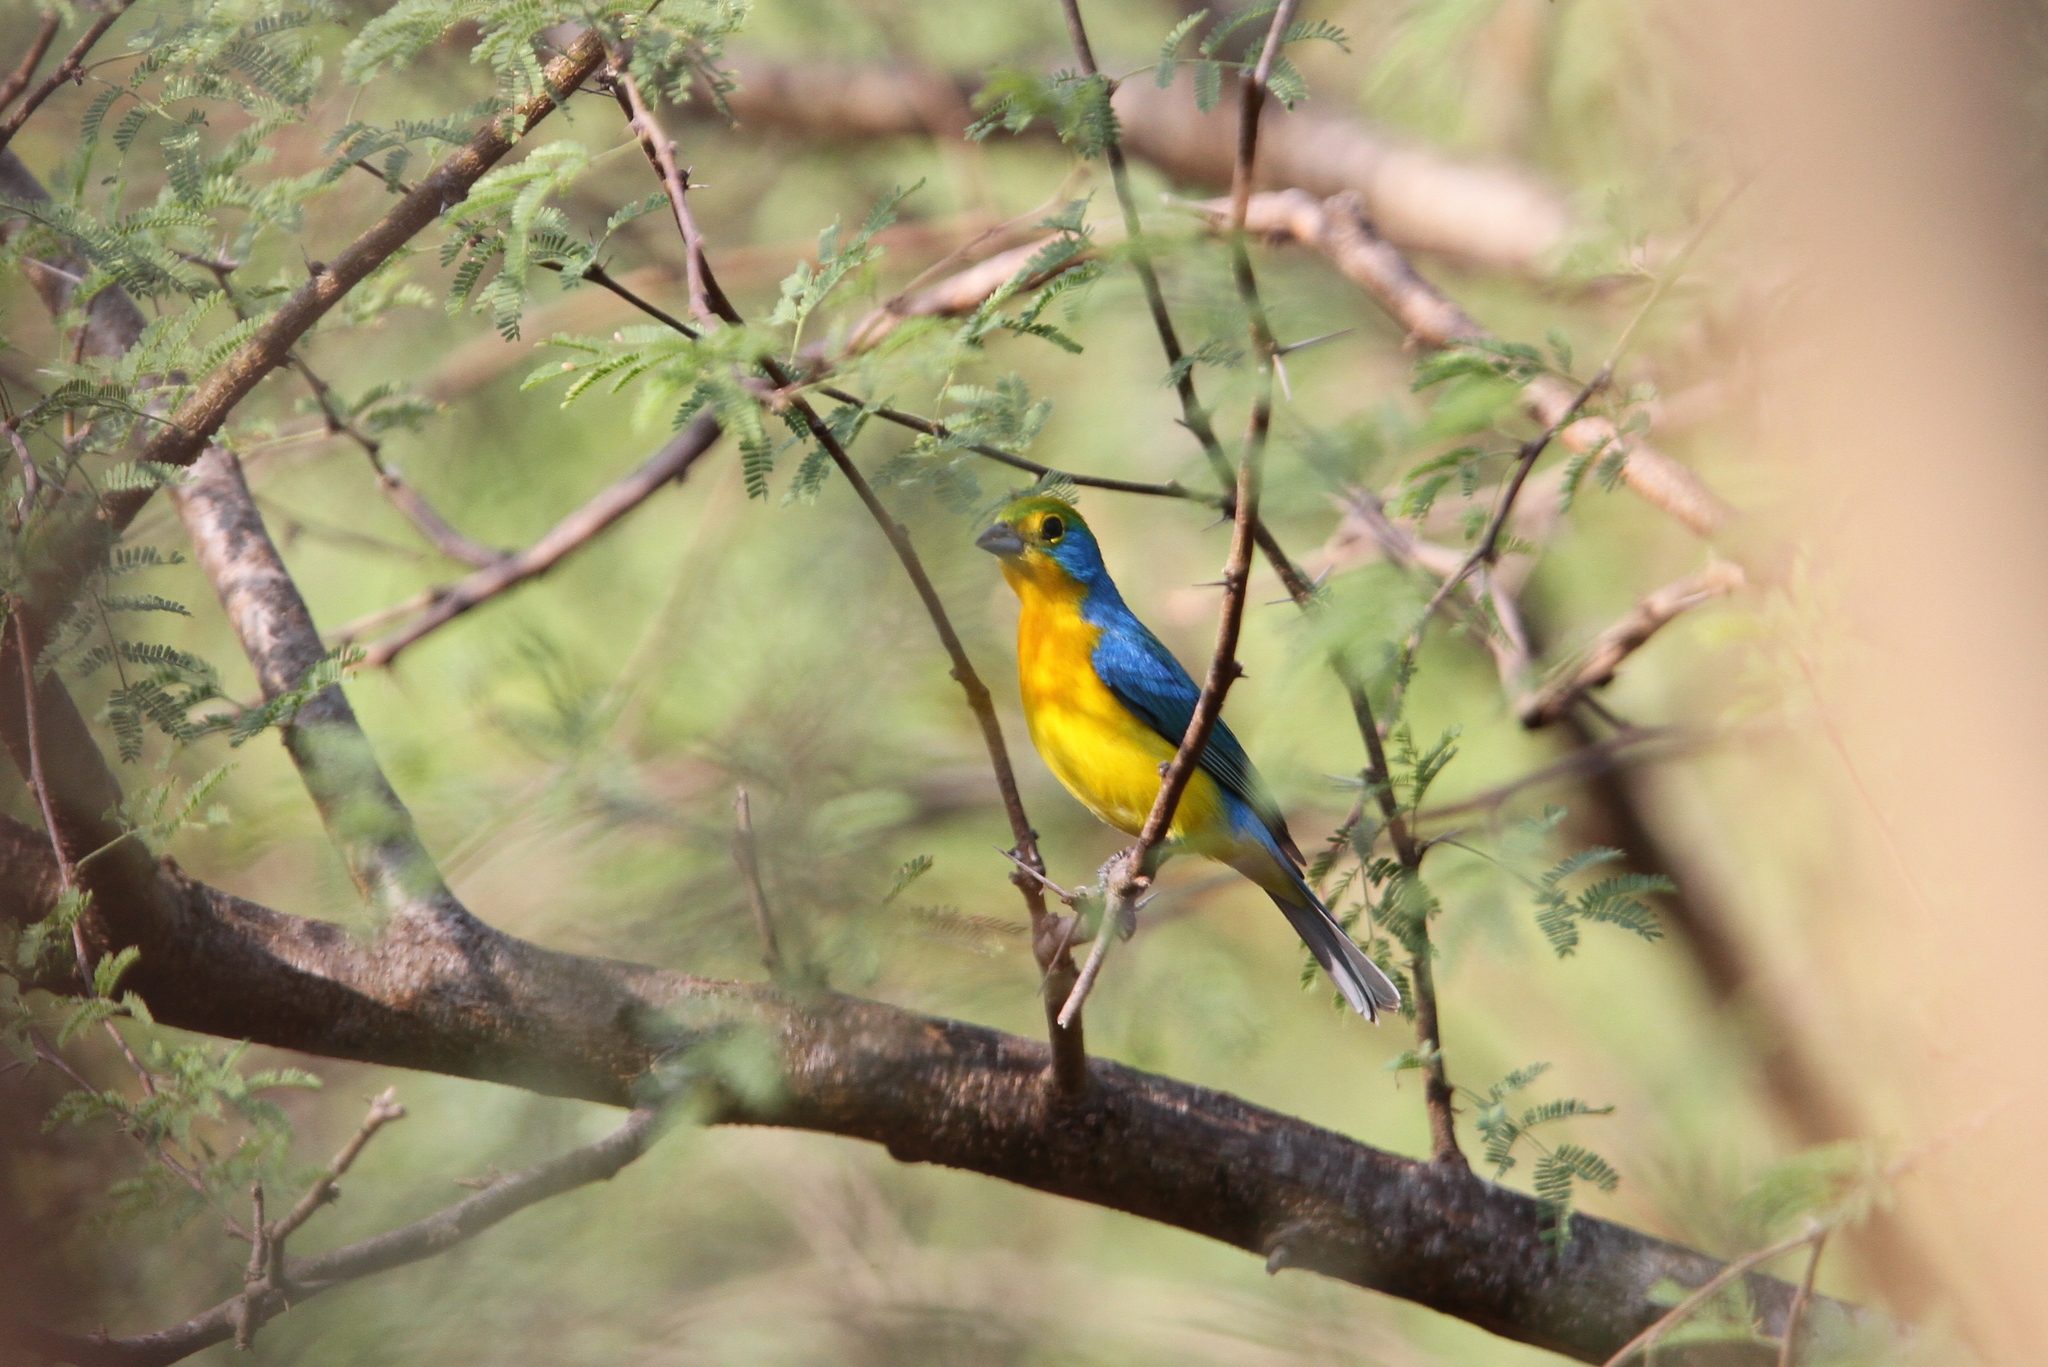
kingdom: Animalia
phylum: Chordata
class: Aves
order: Passeriformes
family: Cardinalidae
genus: Passerina
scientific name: Passerina leclancherii
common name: Orange-breasted bunting
